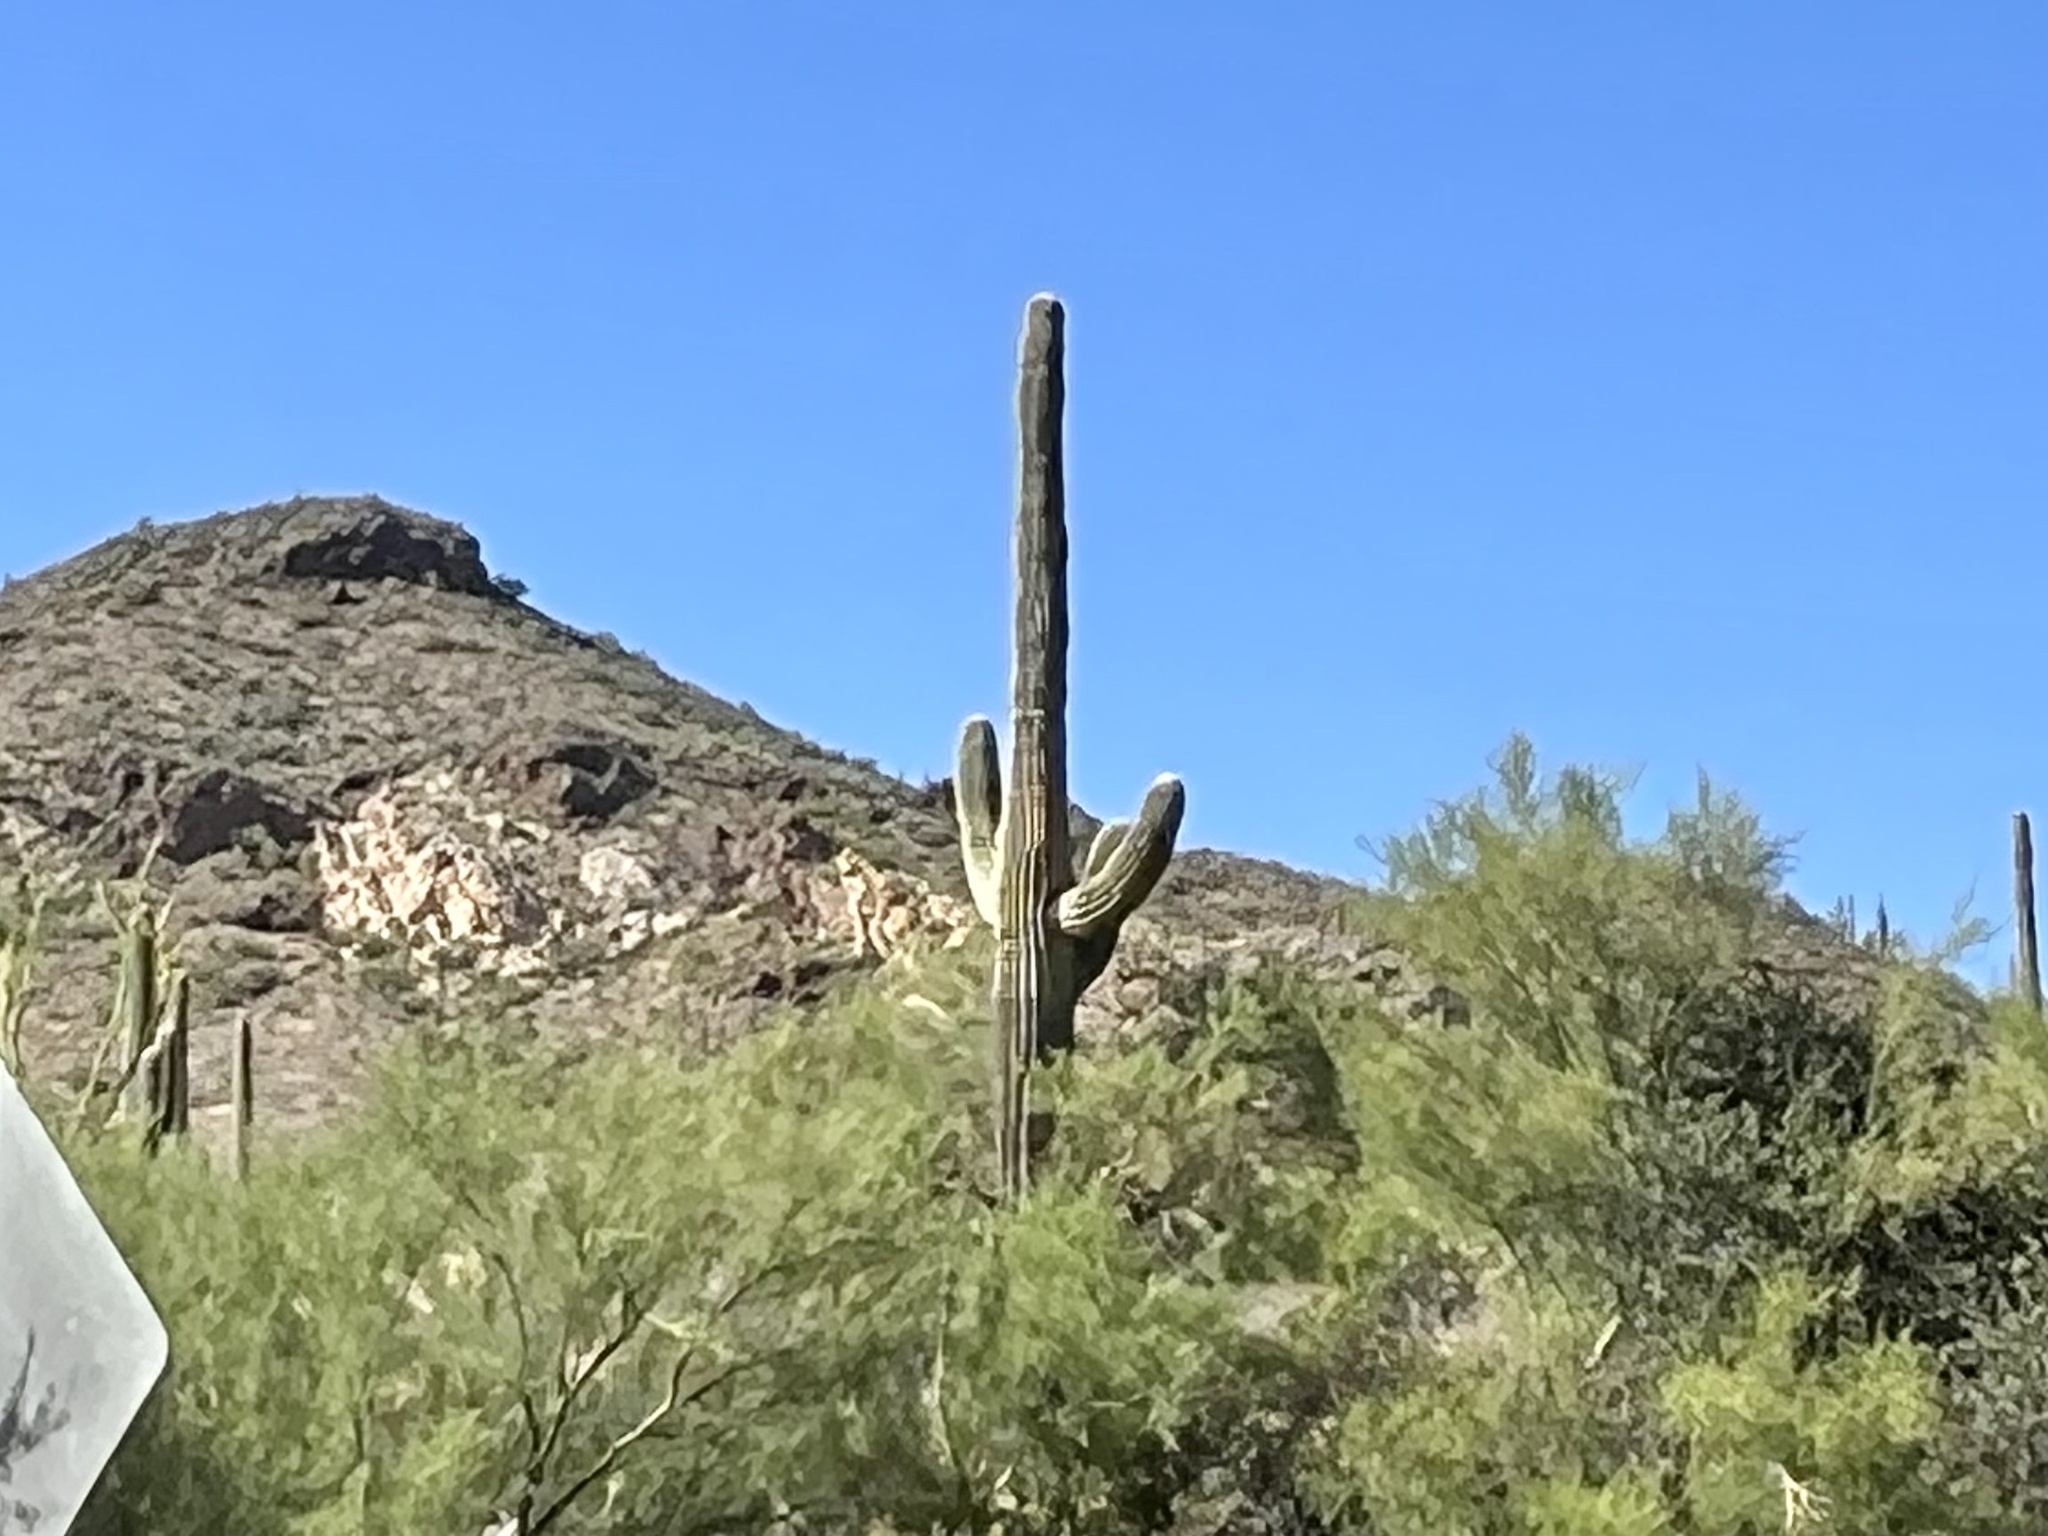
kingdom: Plantae
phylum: Tracheophyta
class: Magnoliopsida
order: Caryophyllales
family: Cactaceae
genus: Carnegiea
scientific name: Carnegiea gigantea
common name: Saguaro
